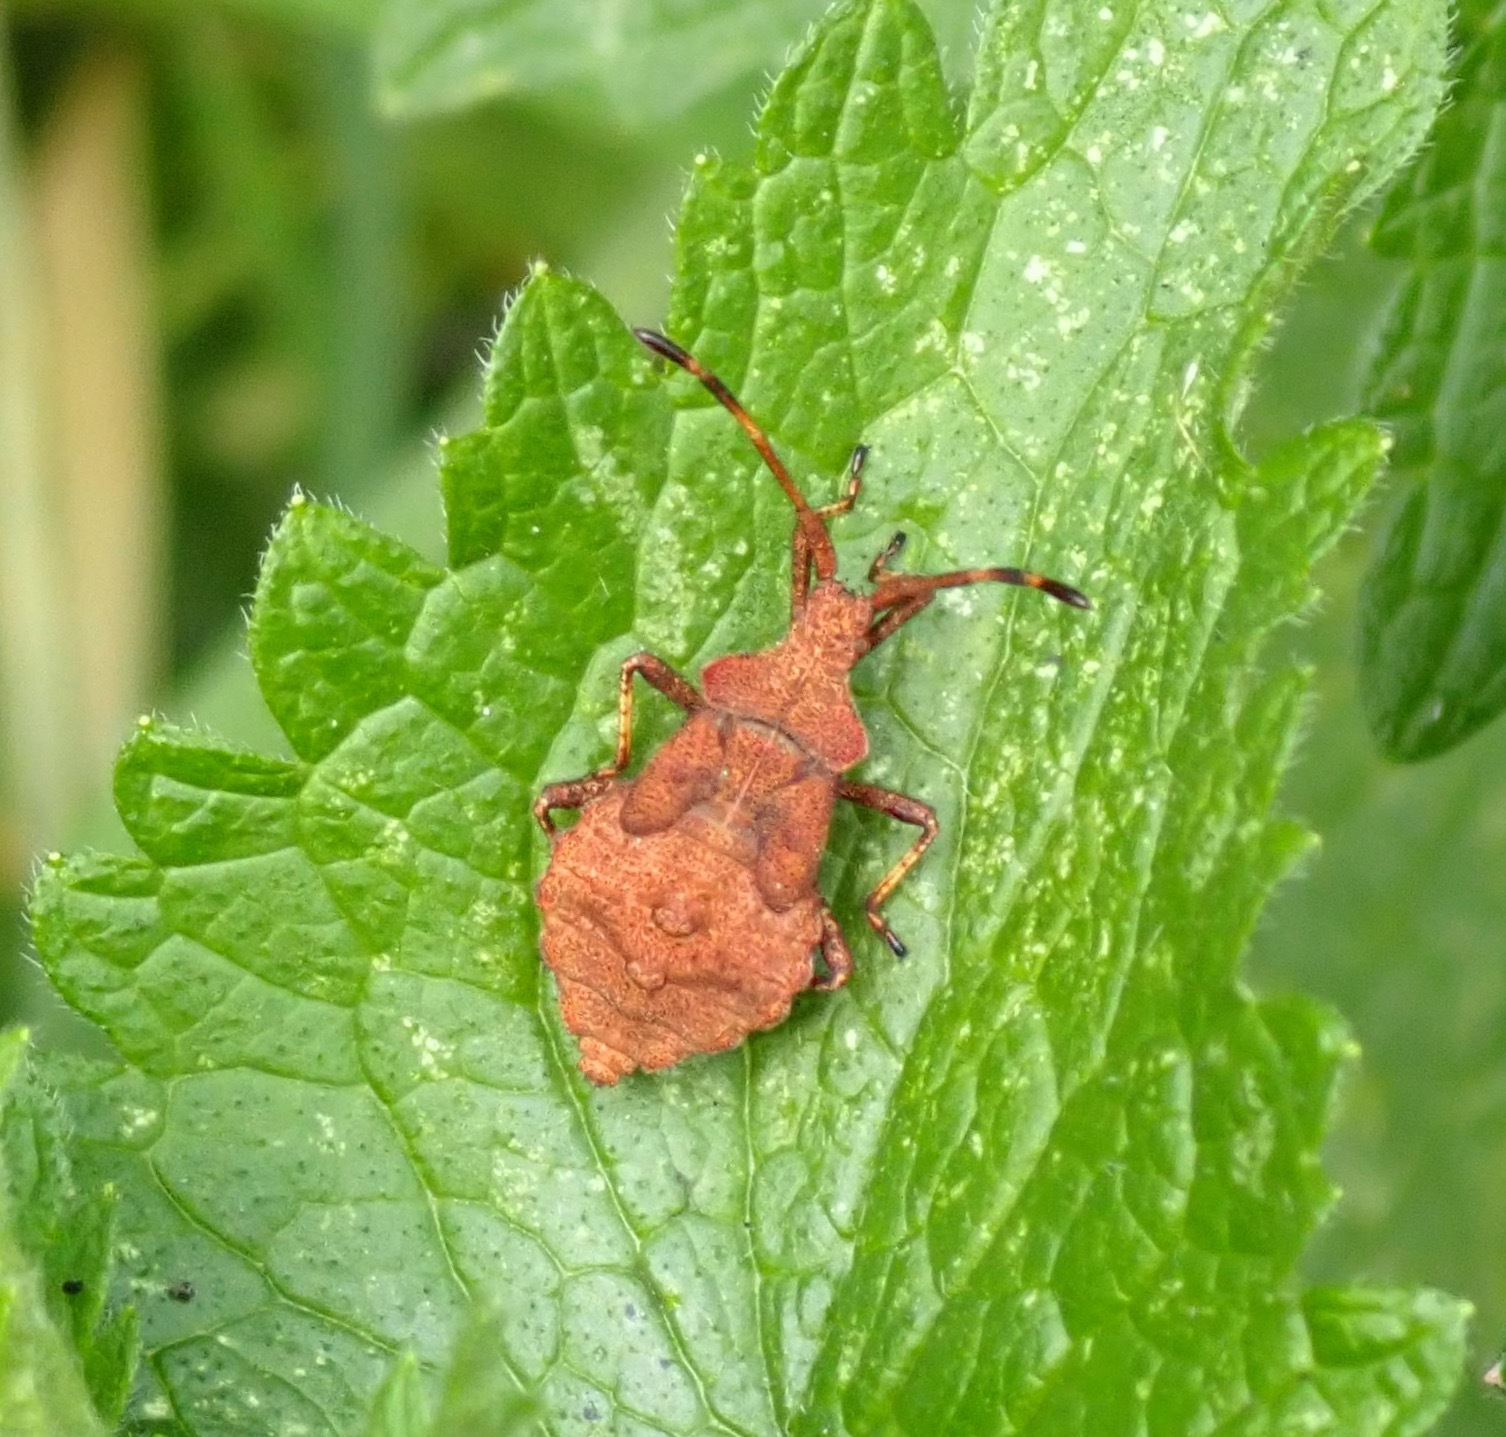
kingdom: Animalia
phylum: Arthropoda
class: Insecta
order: Hemiptera
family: Coreidae
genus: Coreus
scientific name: Coreus marginatus
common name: Dock bug
